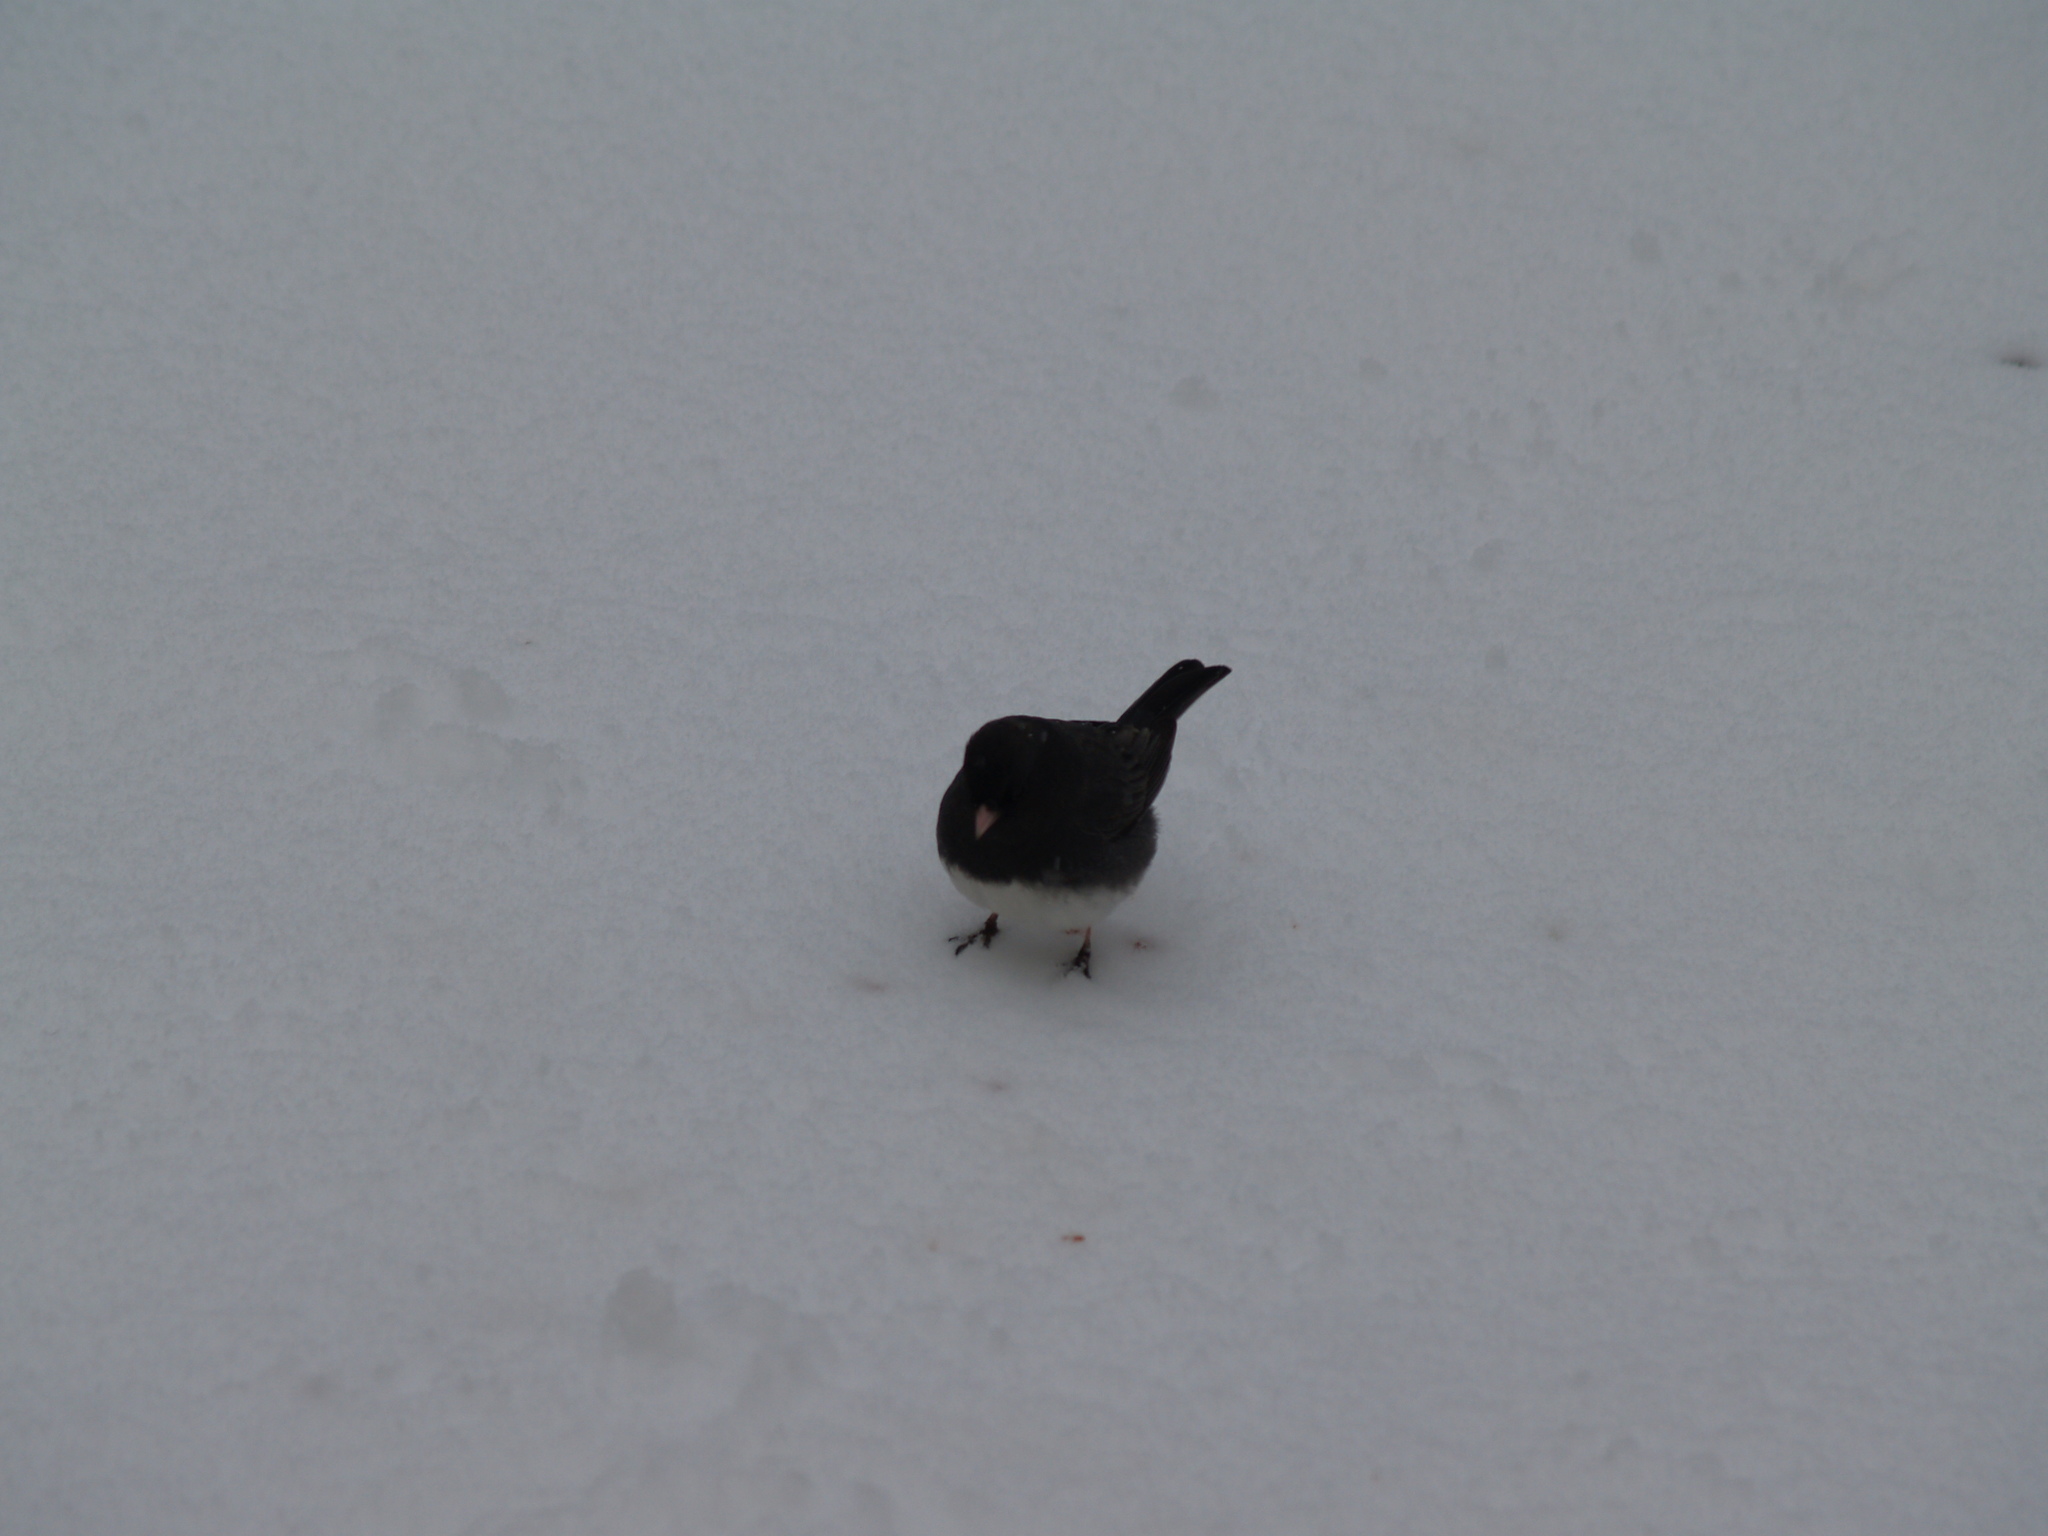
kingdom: Animalia
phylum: Chordata
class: Aves
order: Passeriformes
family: Passerellidae
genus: Junco
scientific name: Junco hyemalis
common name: Dark-eyed junco
